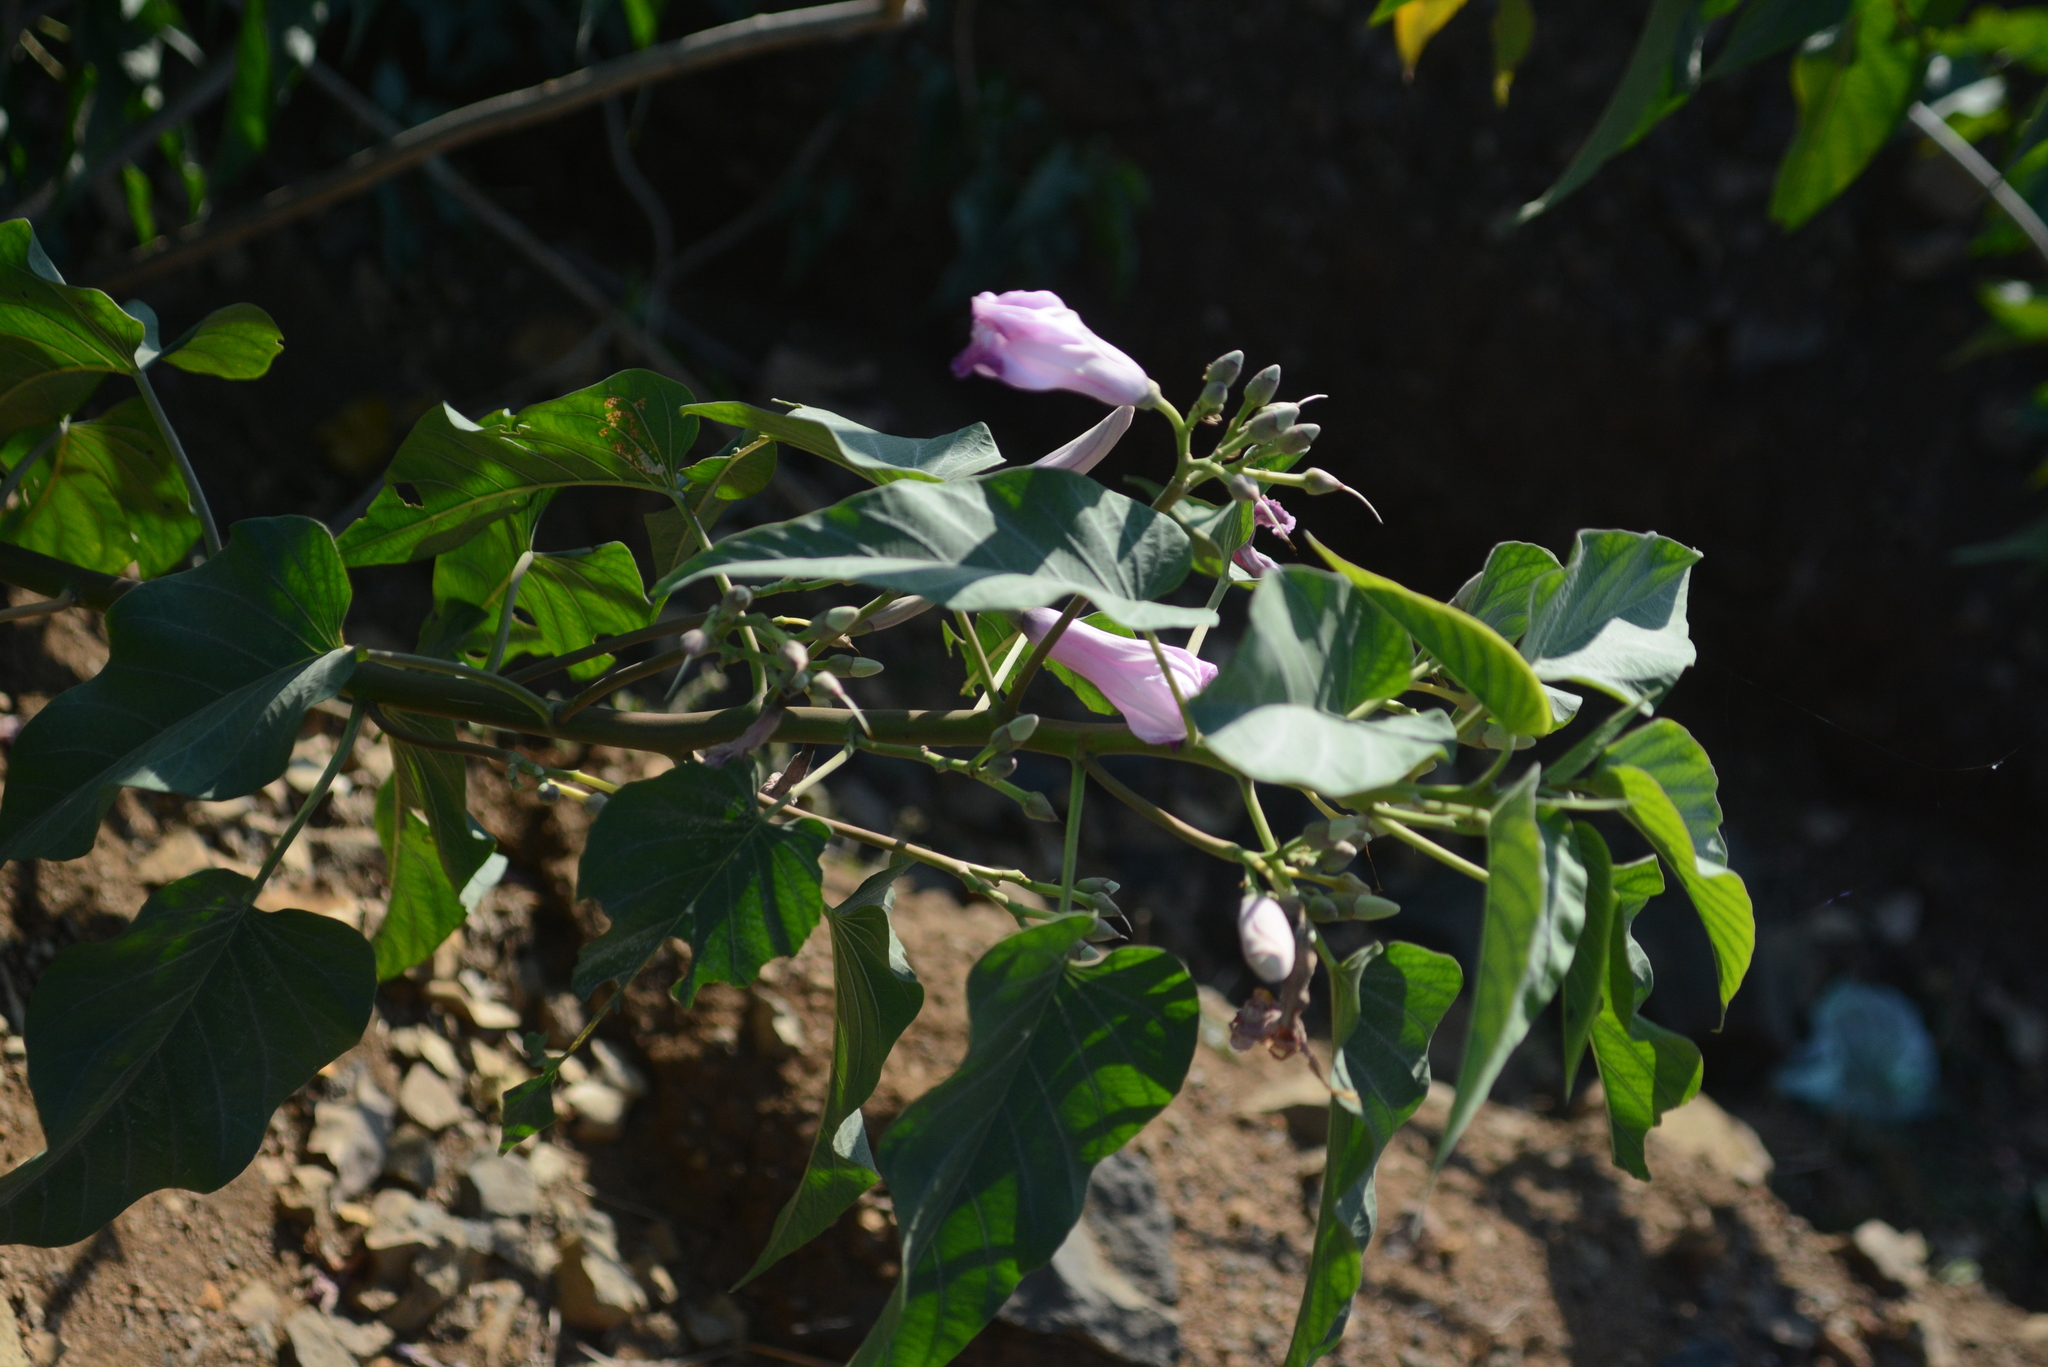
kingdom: Plantae
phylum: Tracheophyta
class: Magnoliopsida
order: Solanales
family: Convolvulaceae
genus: Ipomoea
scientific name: Ipomoea carnea
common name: Morning-glory
